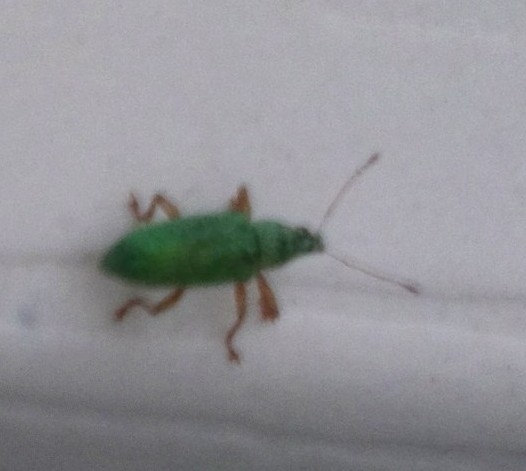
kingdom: Animalia
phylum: Arthropoda
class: Insecta
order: Coleoptera
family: Curculionidae
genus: Polydrusus
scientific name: Polydrusus formosus
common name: Weevil
